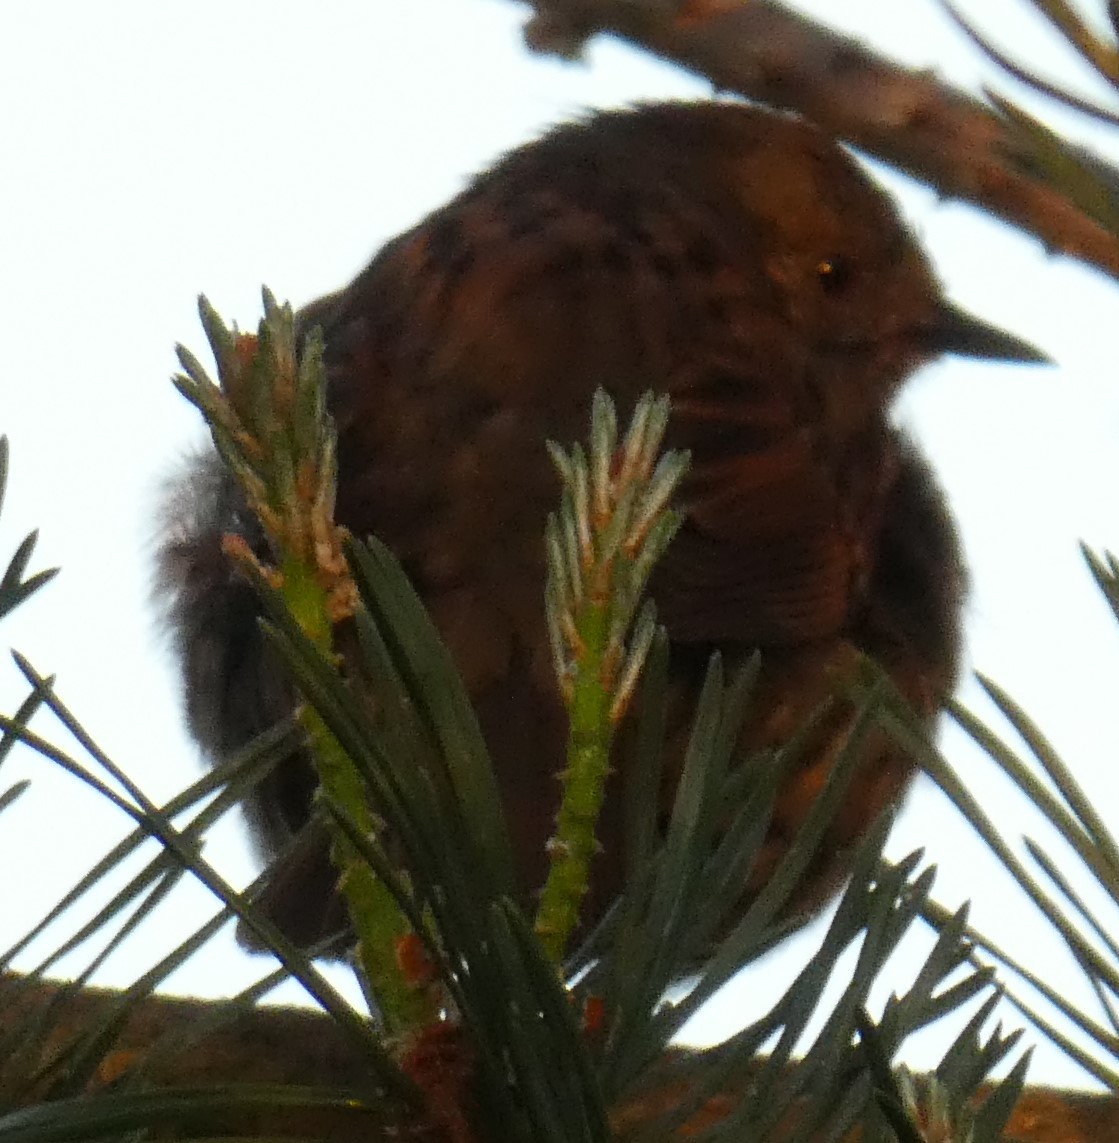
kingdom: Animalia
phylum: Chordata
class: Aves
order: Passeriformes
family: Prunellidae
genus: Prunella
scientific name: Prunella modularis
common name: Dunnock
